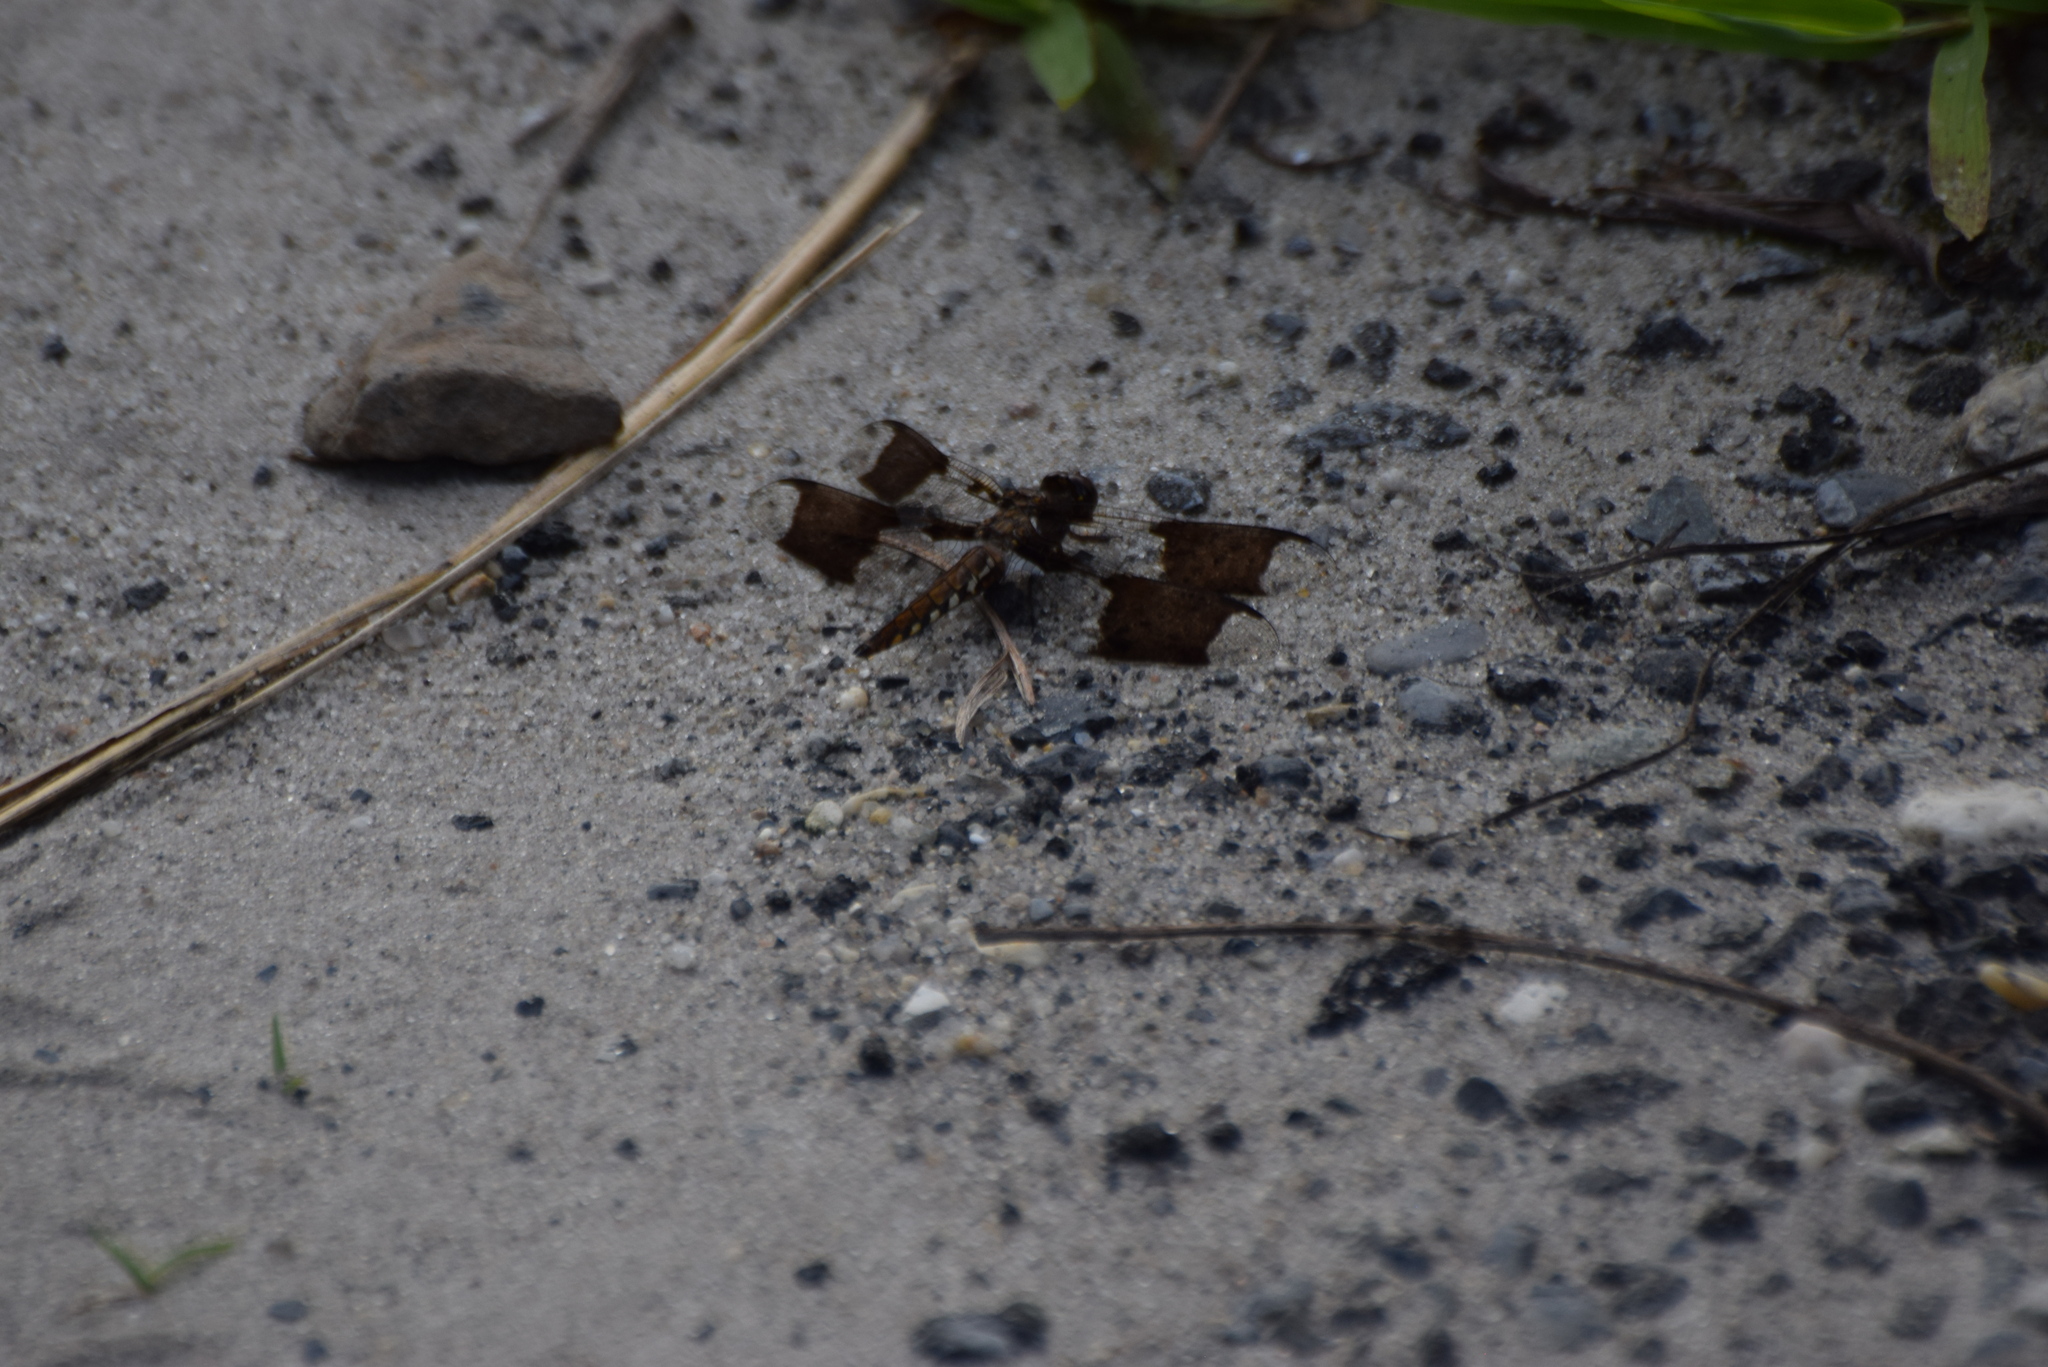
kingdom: Animalia
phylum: Arthropoda
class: Insecta
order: Odonata
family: Libellulidae
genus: Plathemis
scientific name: Plathemis lydia
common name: Common whitetail
